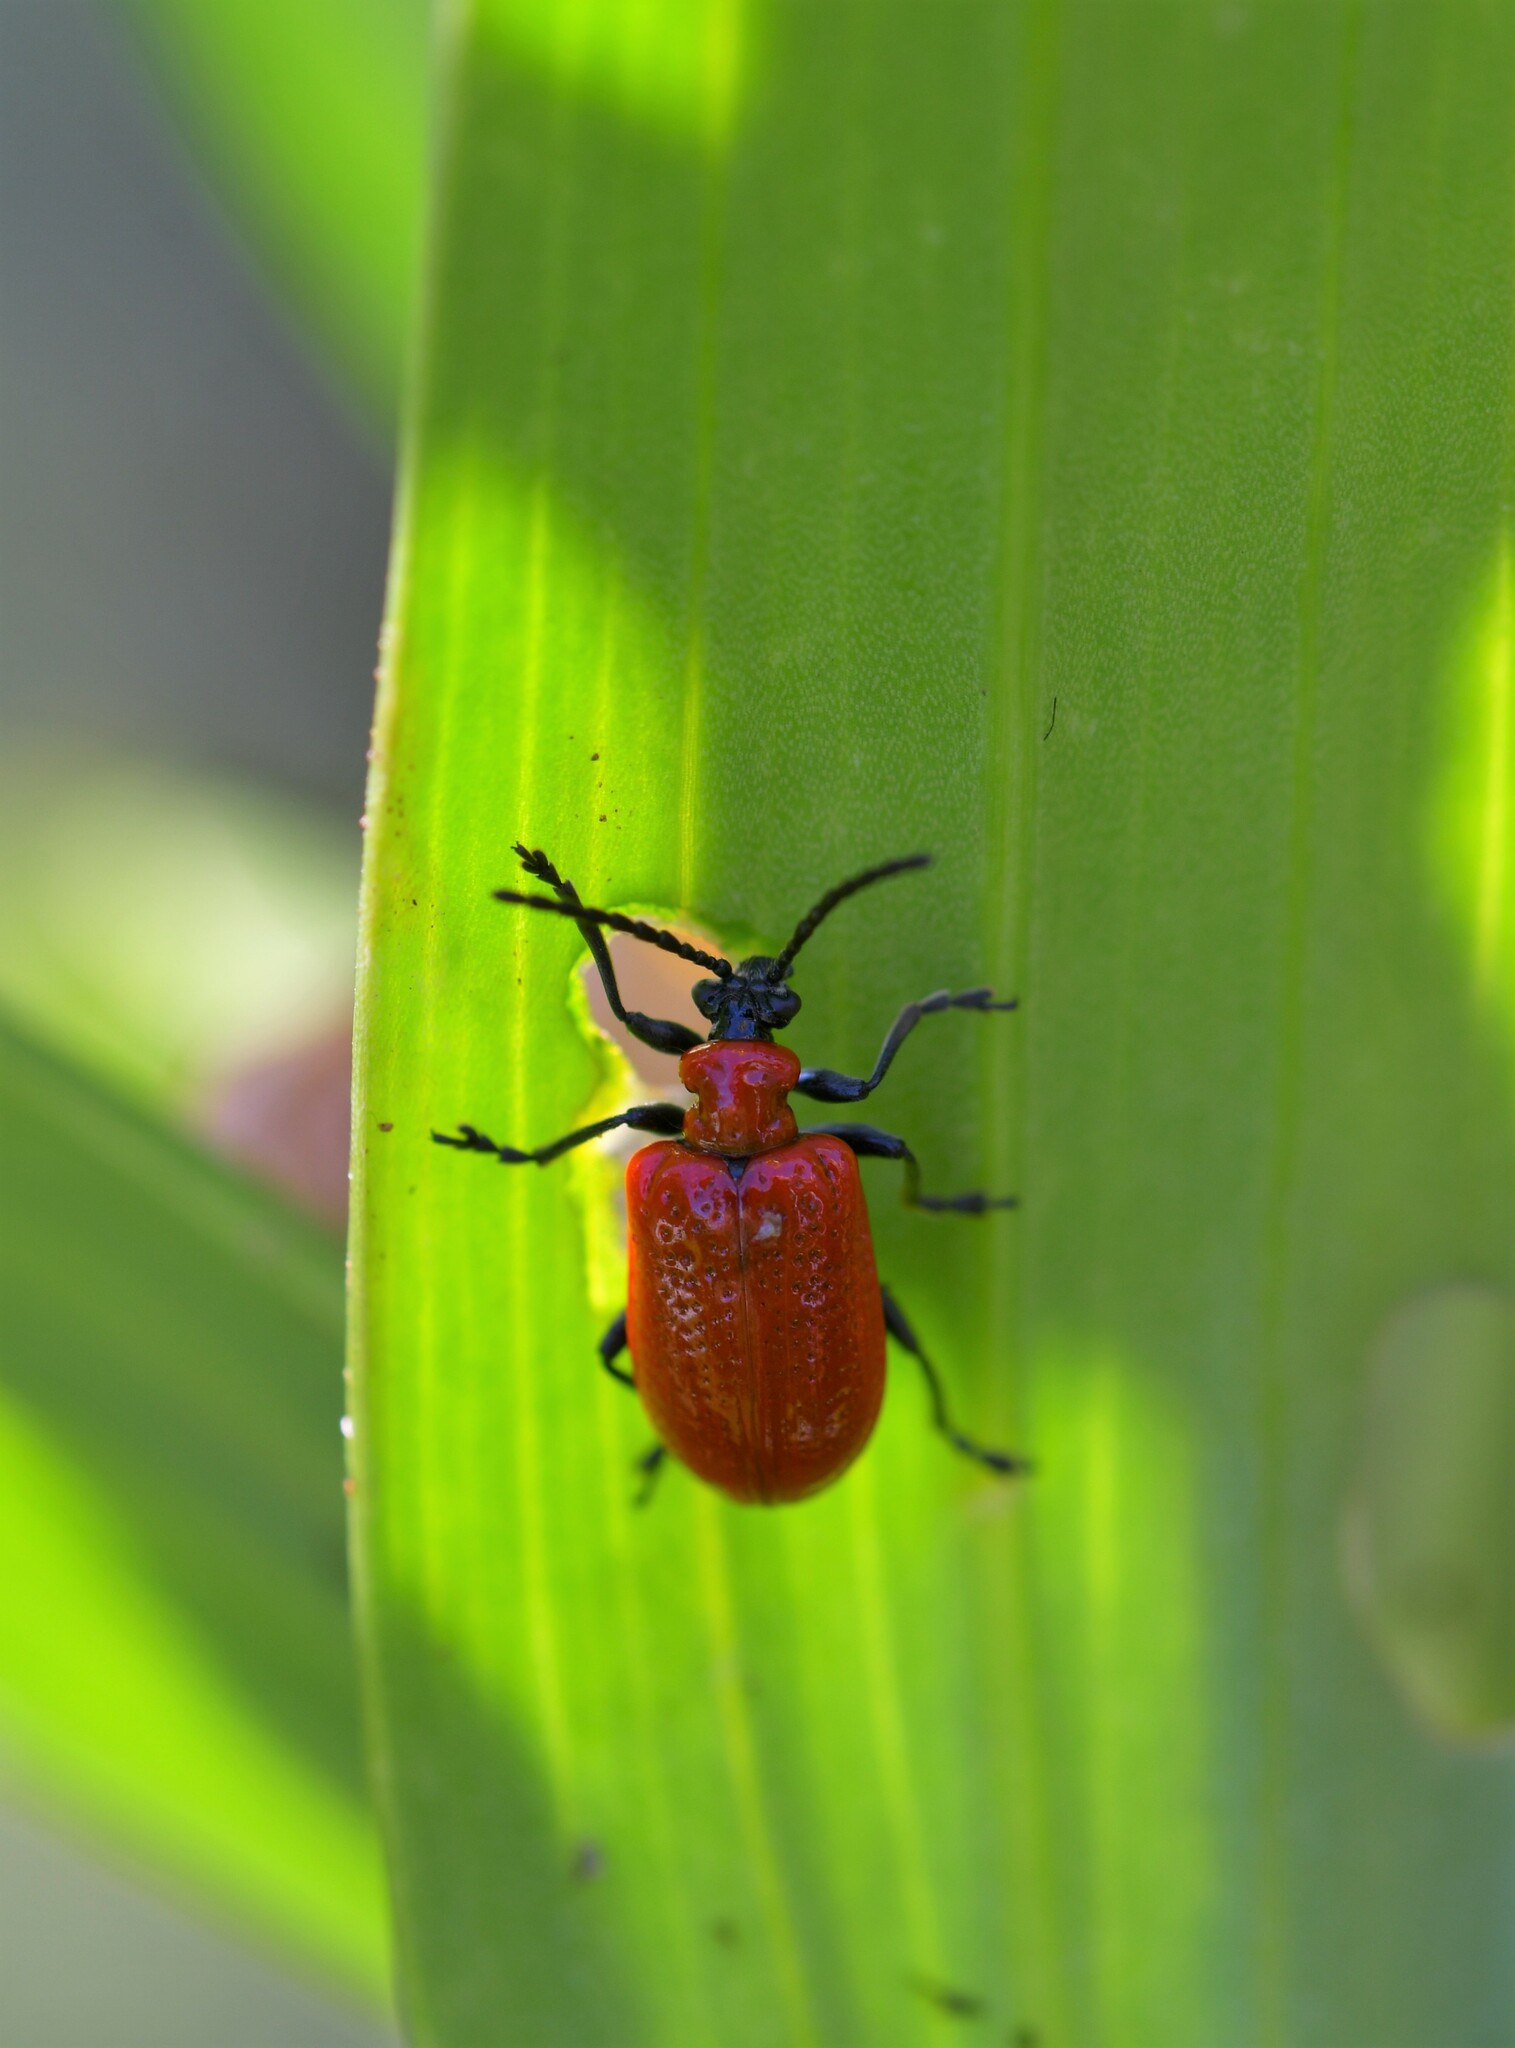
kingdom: Animalia
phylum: Arthropoda
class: Insecta
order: Coleoptera
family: Chrysomelidae
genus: Lilioceris
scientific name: Lilioceris lilii
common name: Lily beetle
